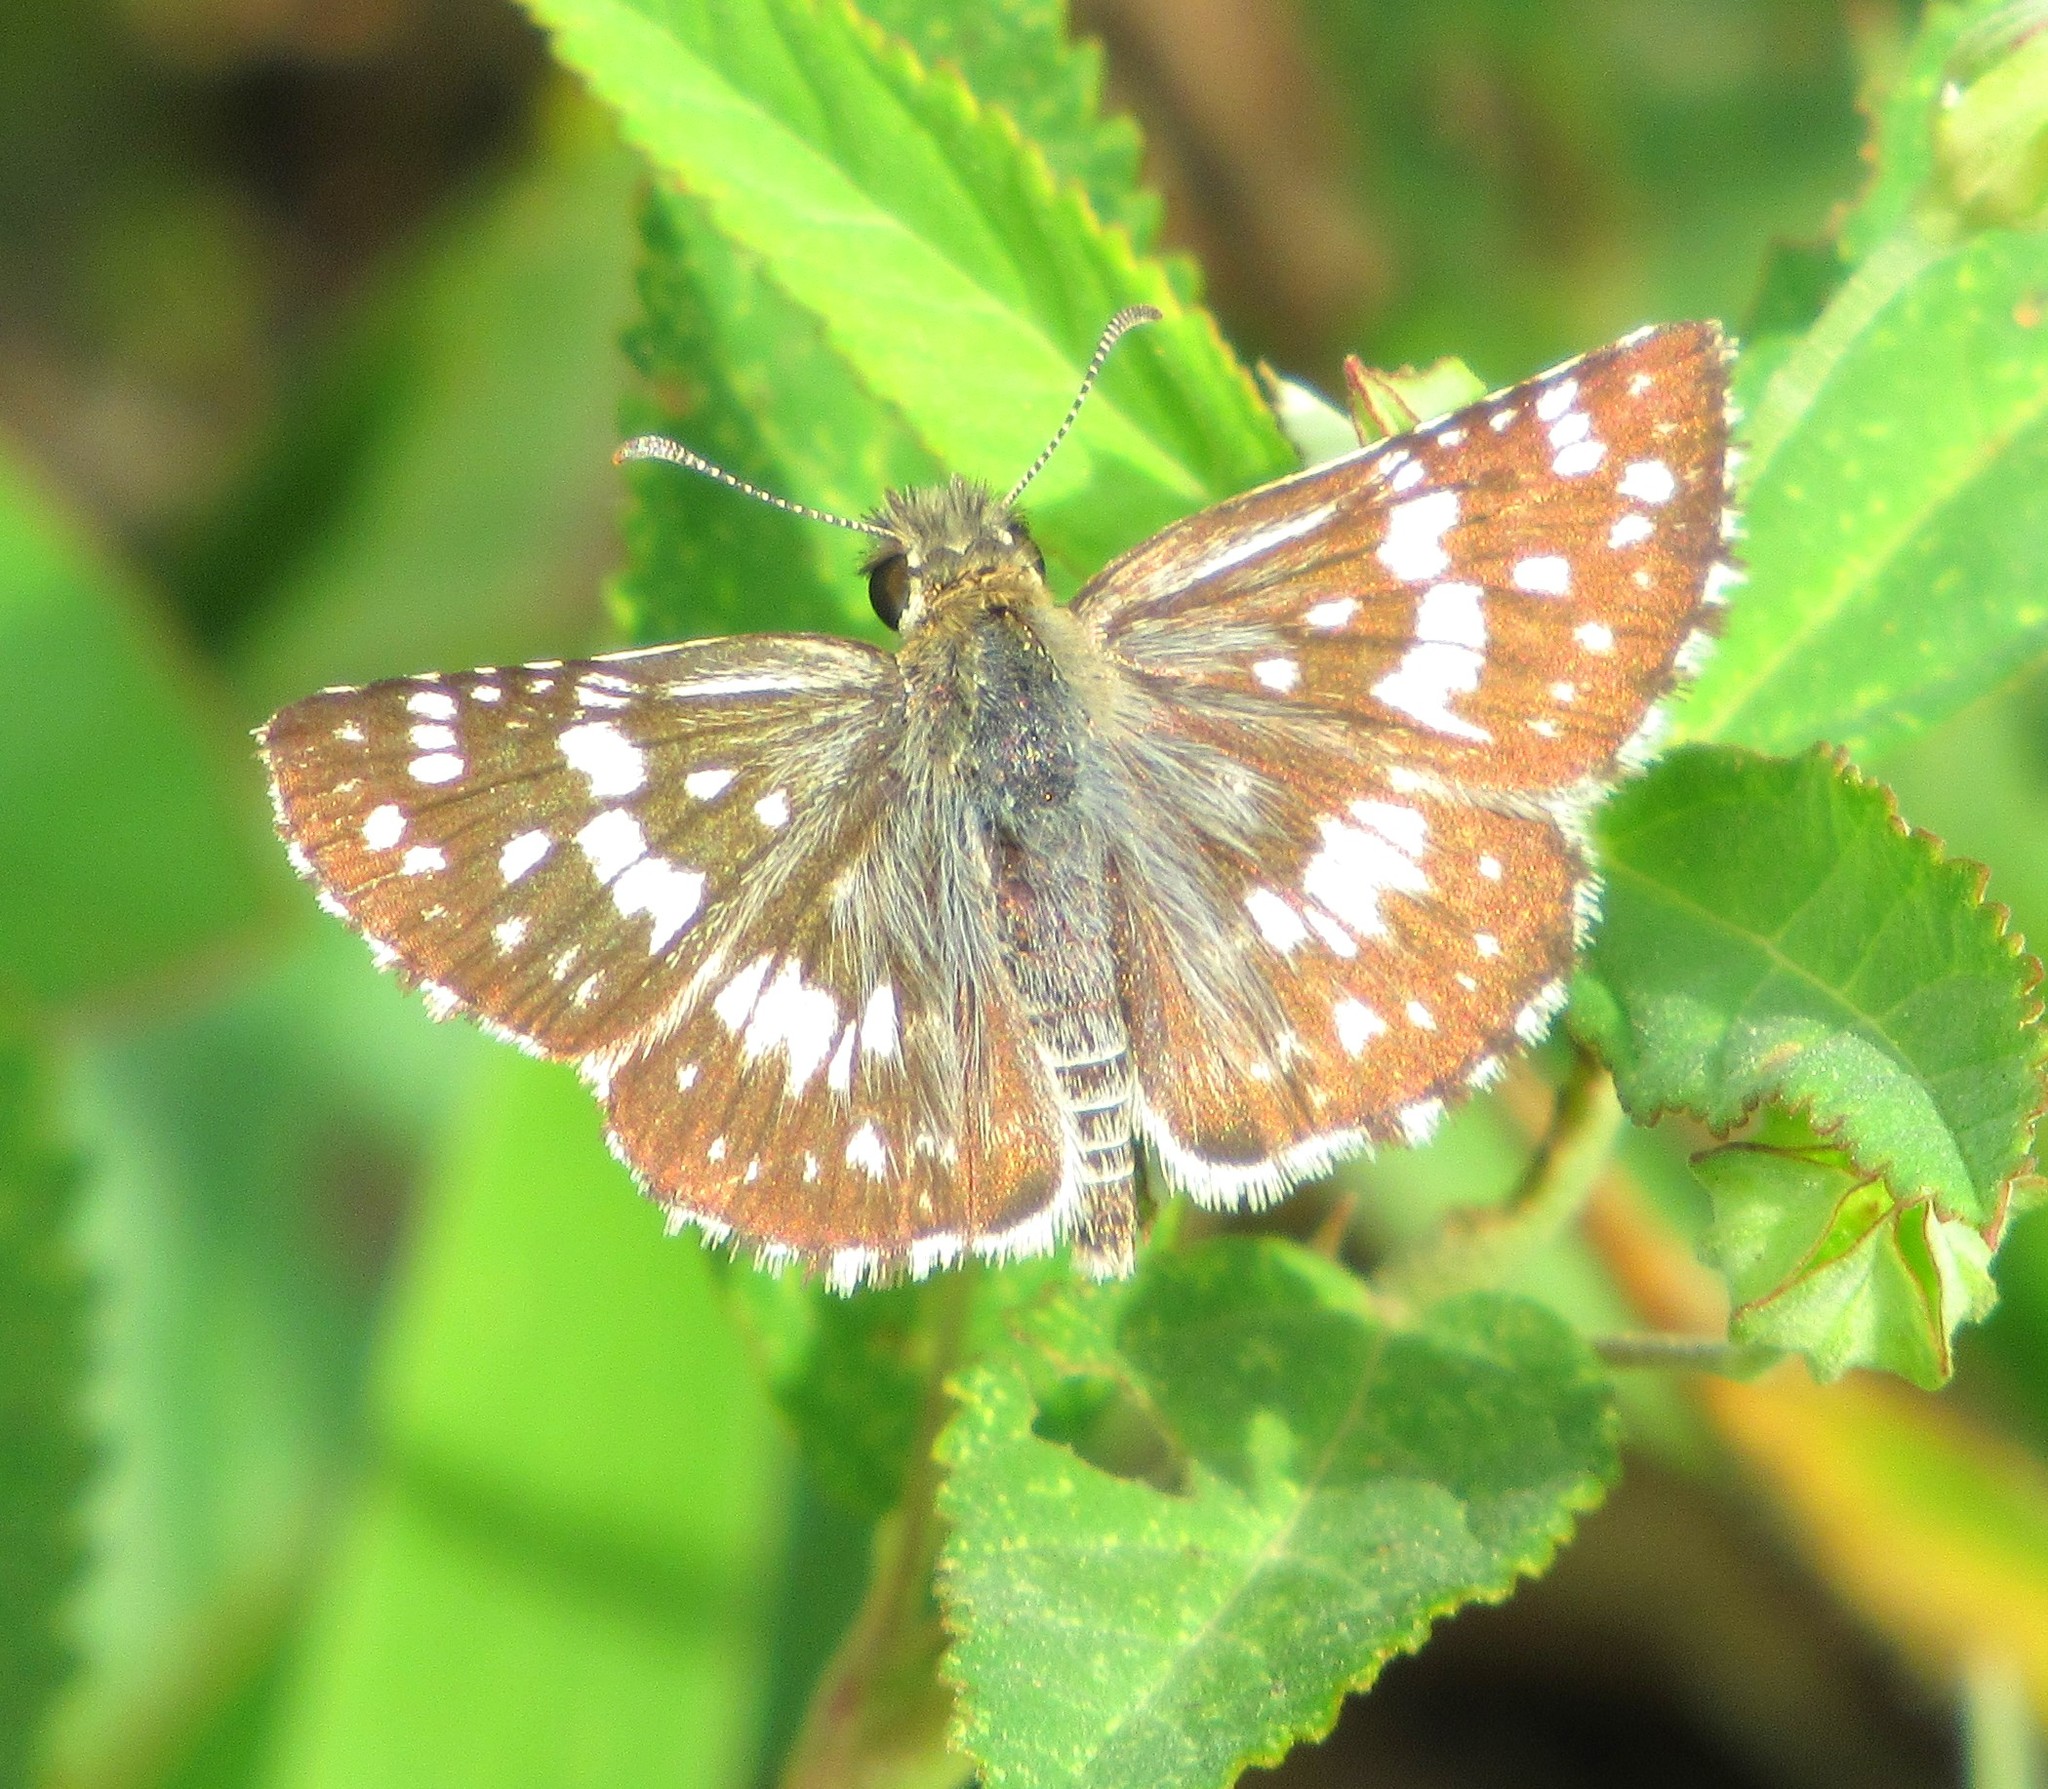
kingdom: Animalia
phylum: Arthropoda
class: Insecta
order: Lepidoptera
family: Hesperiidae
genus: Burnsius
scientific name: Burnsius orcynoides
